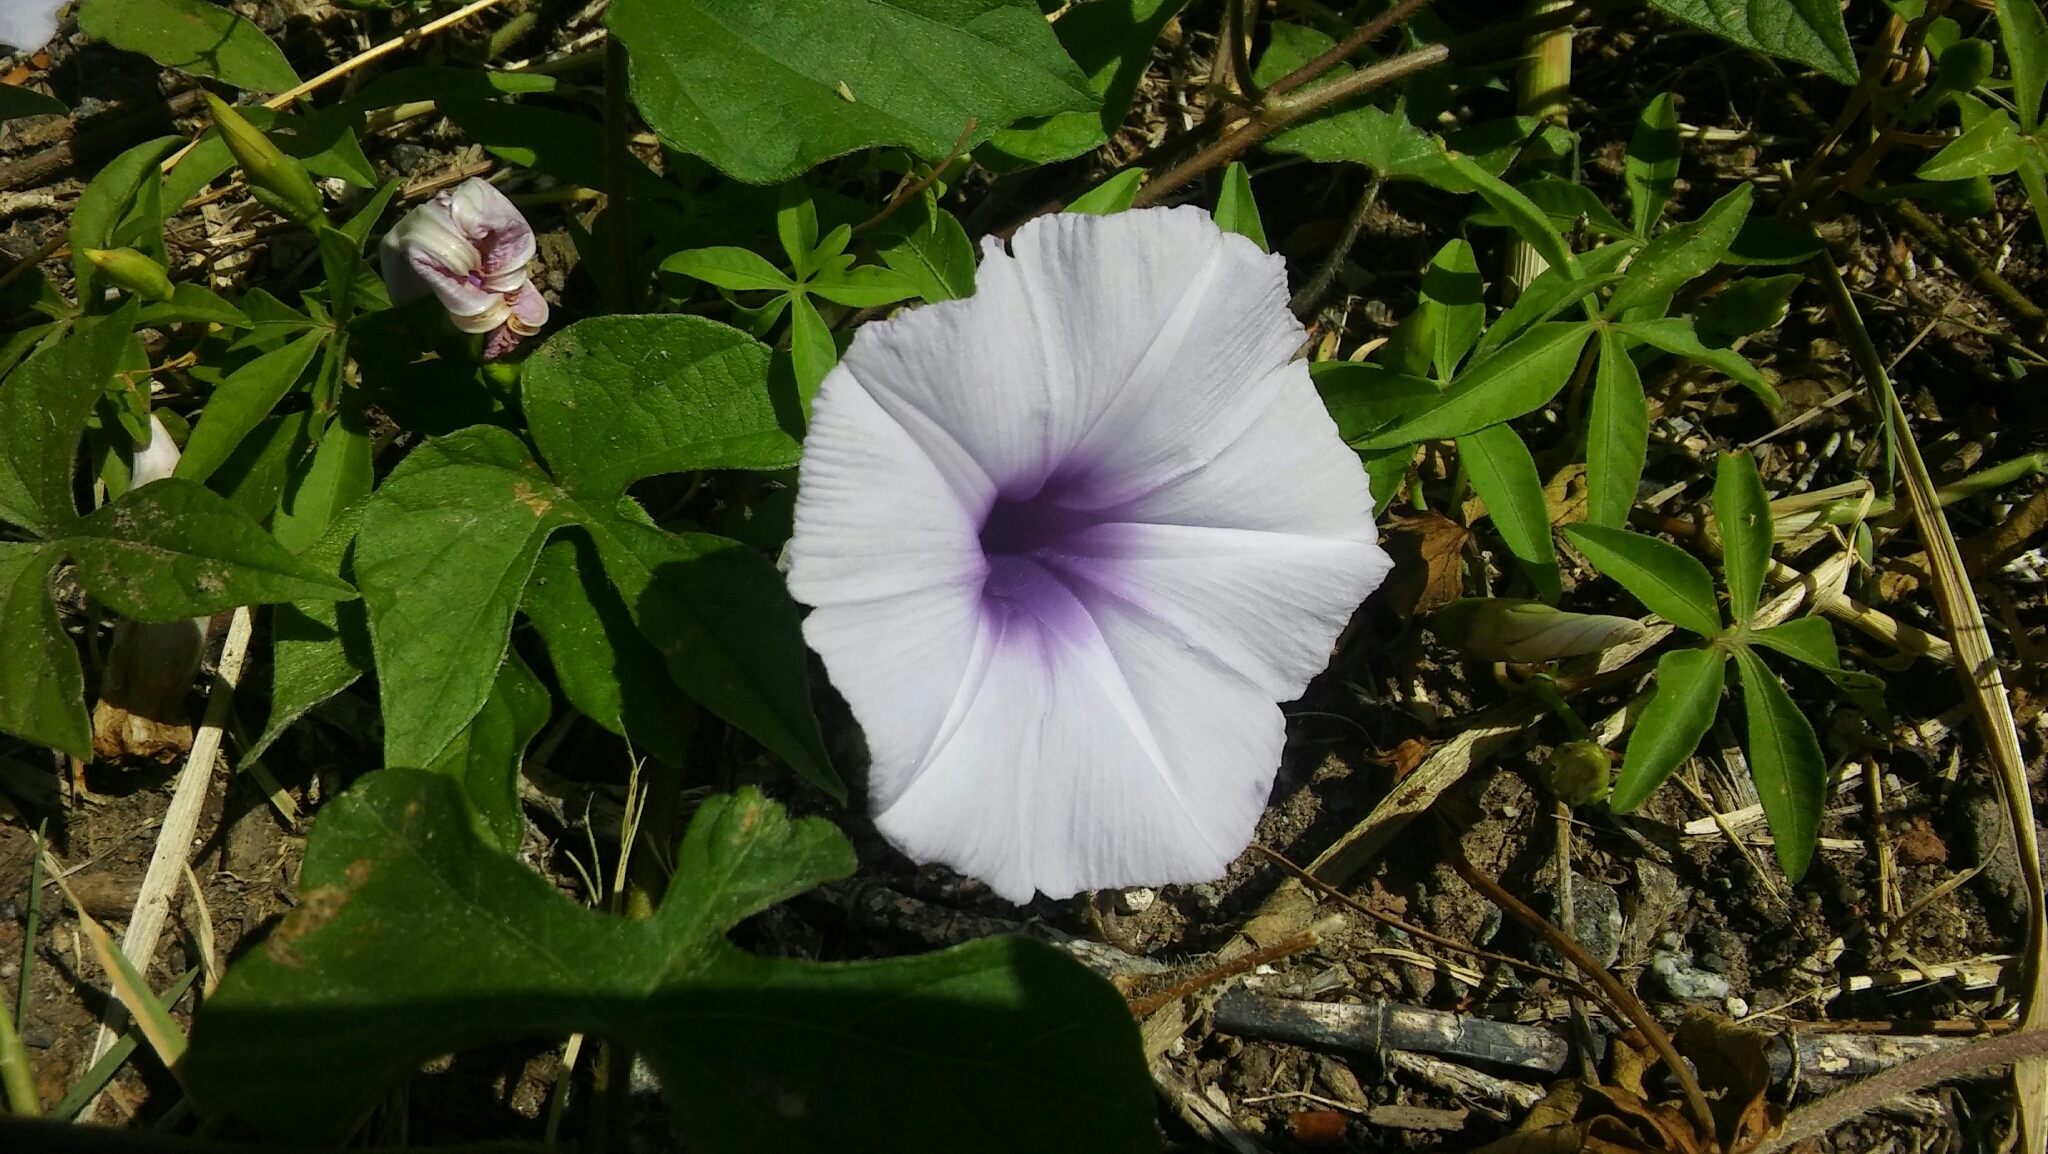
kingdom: Plantae
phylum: Tracheophyta
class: Magnoliopsida
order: Solanales
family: Convolvulaceae
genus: Ipomoea
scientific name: Ipomoea cairica
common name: Mile a minute vine
